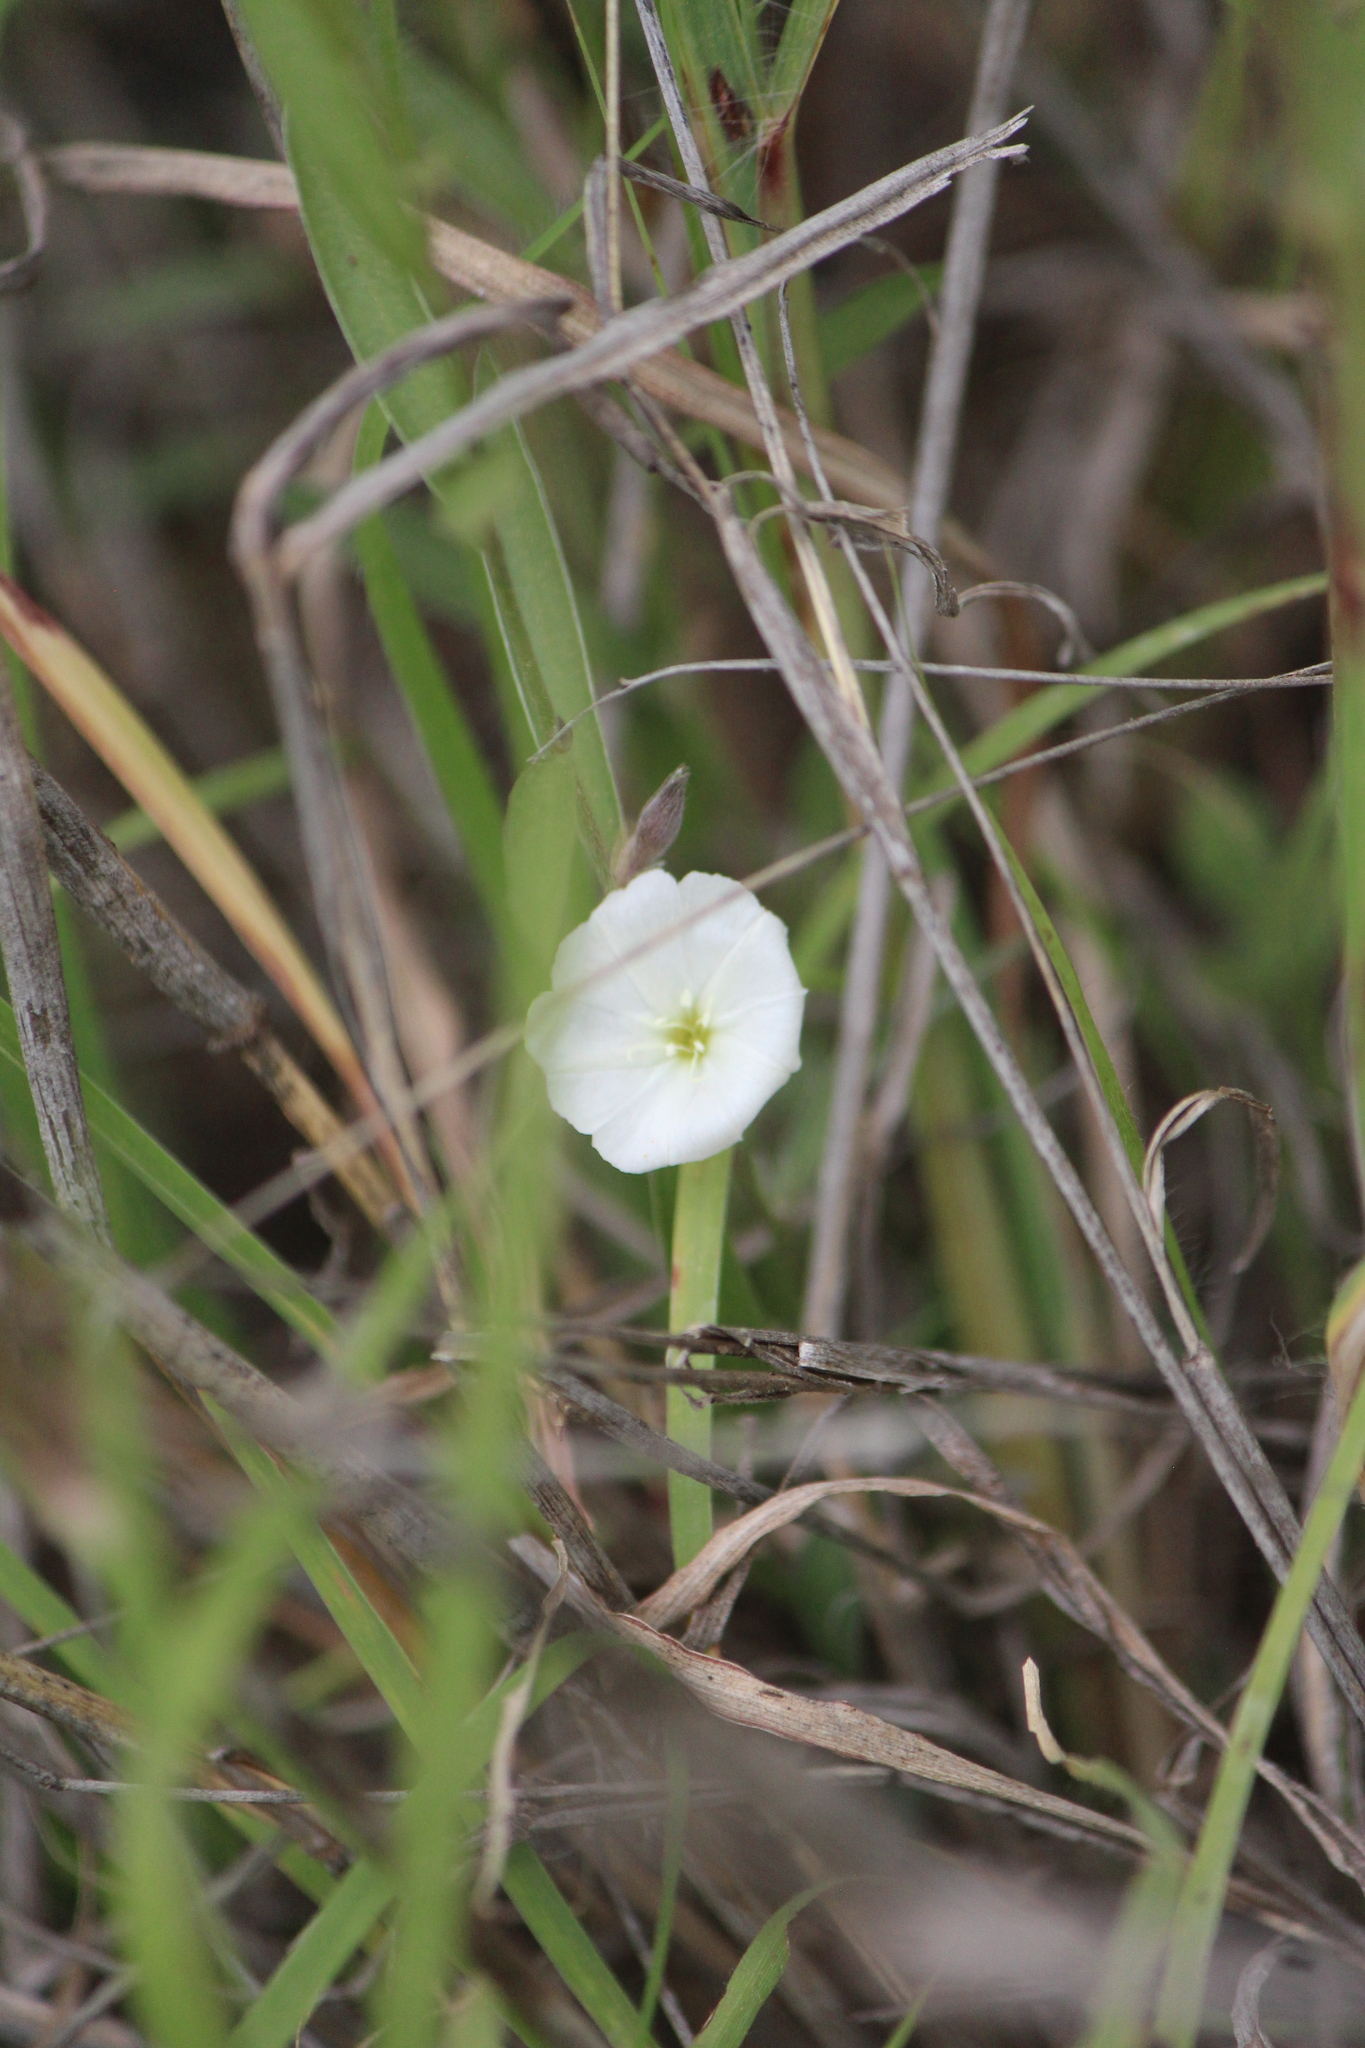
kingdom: Plantae
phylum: Tracheophyta
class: Magnoliopsida
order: Solanales
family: Convolvulaceae
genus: Evolvulus
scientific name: Evolvulus sericeus
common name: Blue dots
